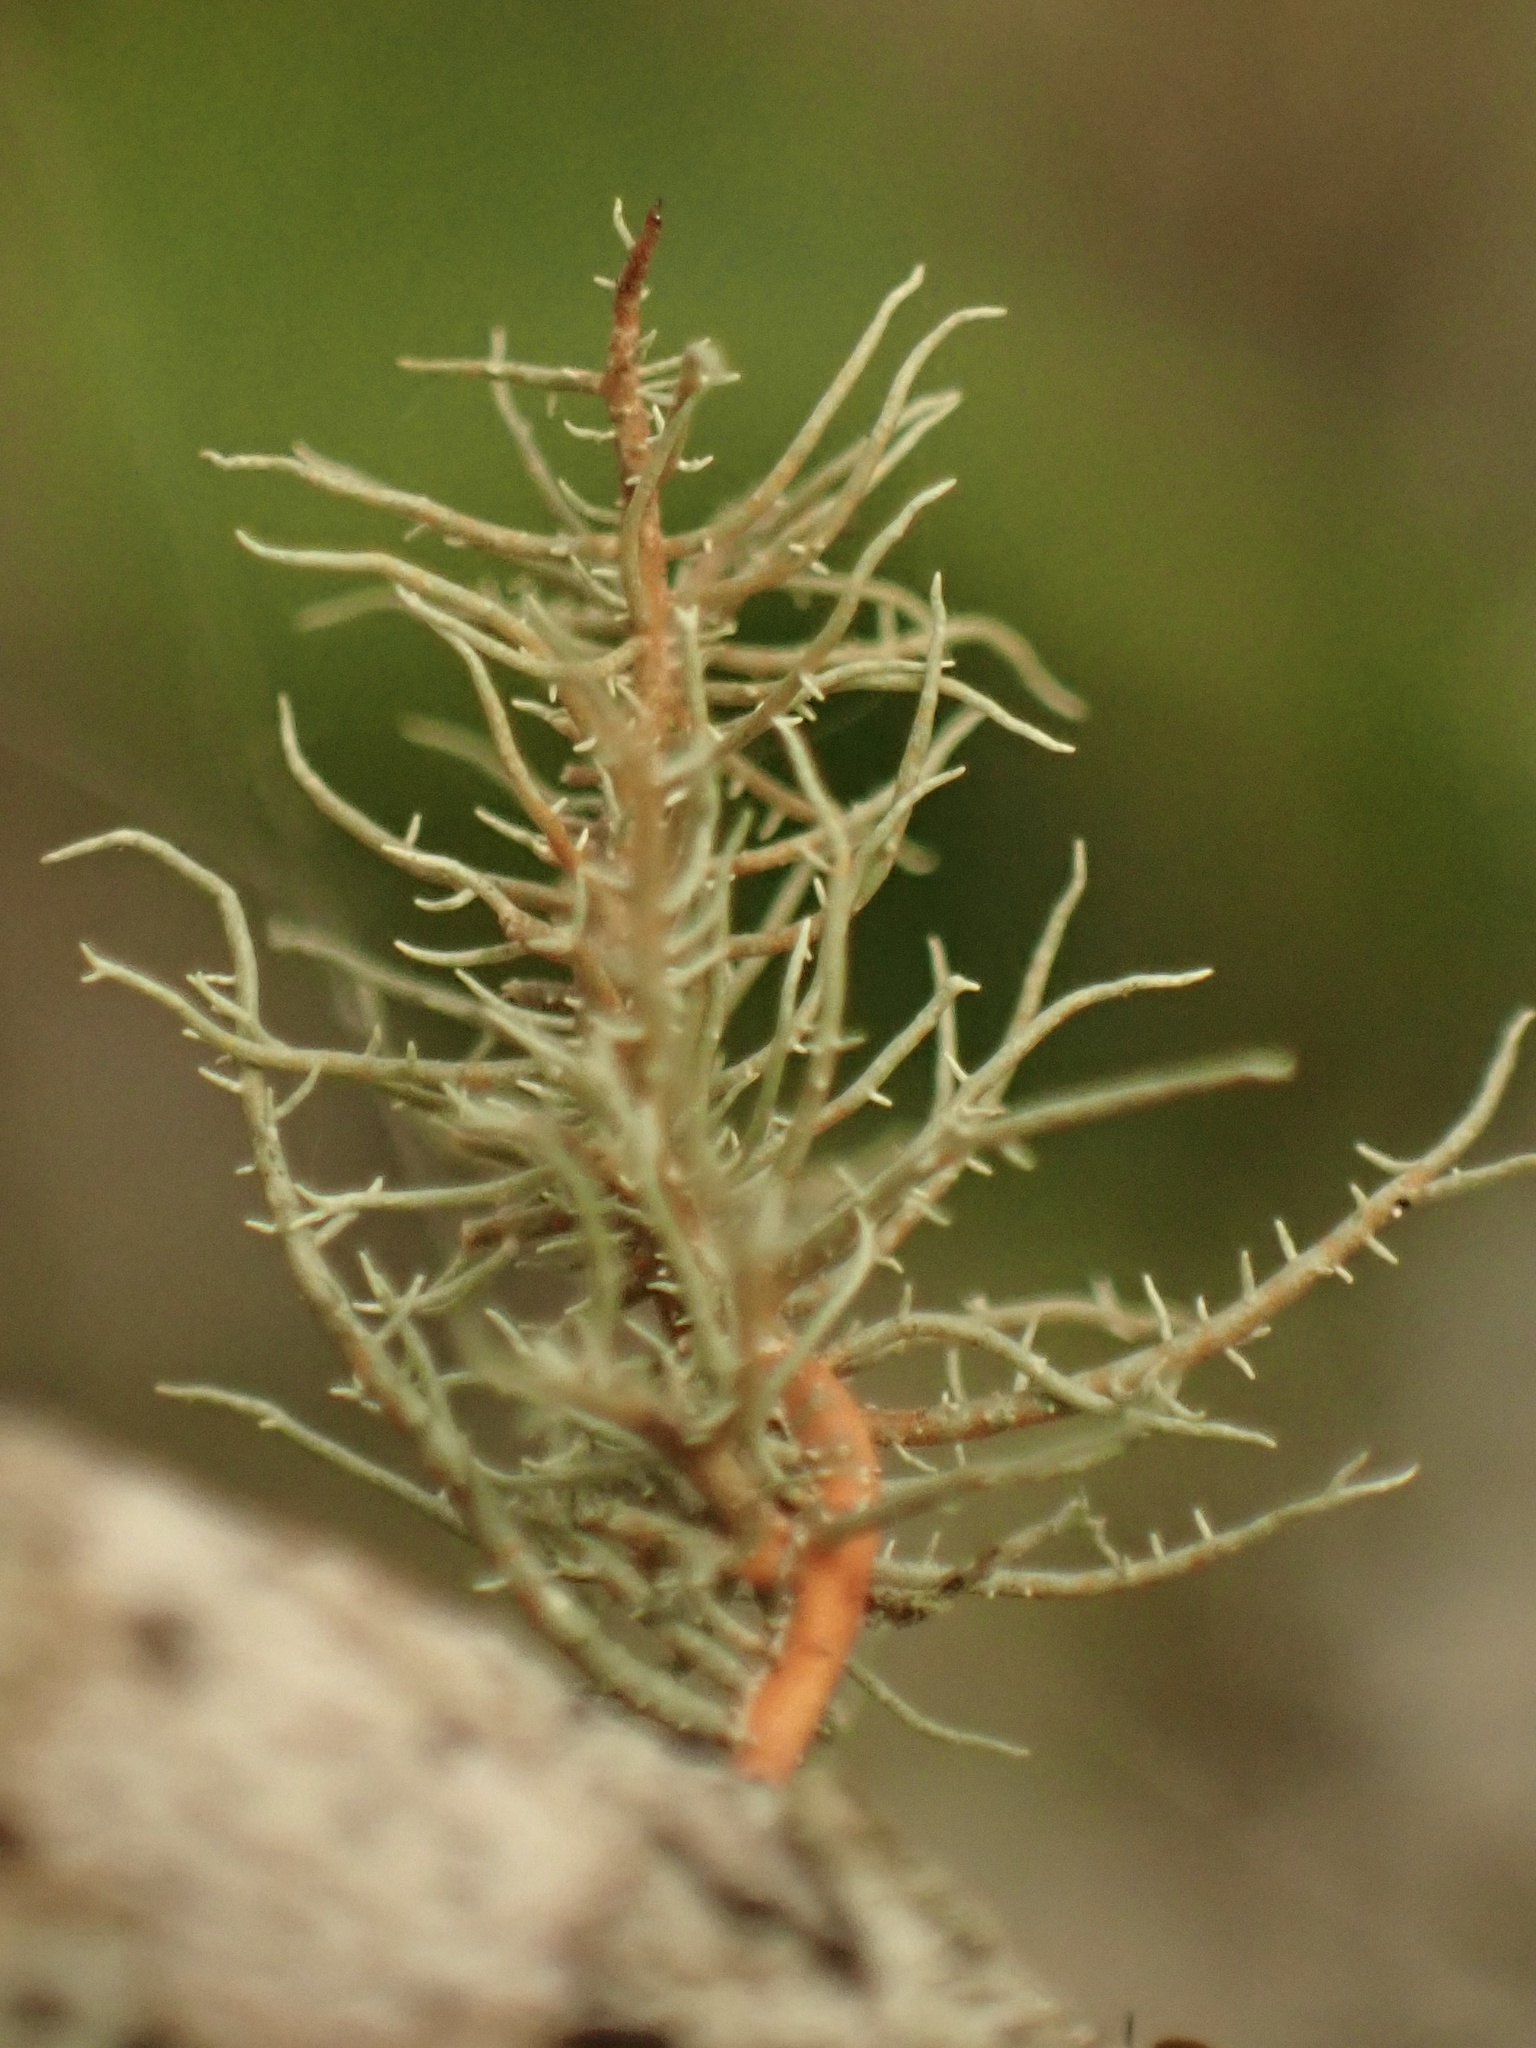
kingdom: Fungi
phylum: Ascomycota
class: Lecanoromycetes
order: Lecanorales
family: Parmeliaceae
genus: Usnea
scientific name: Usnea rubicunda
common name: Red beard lichen
